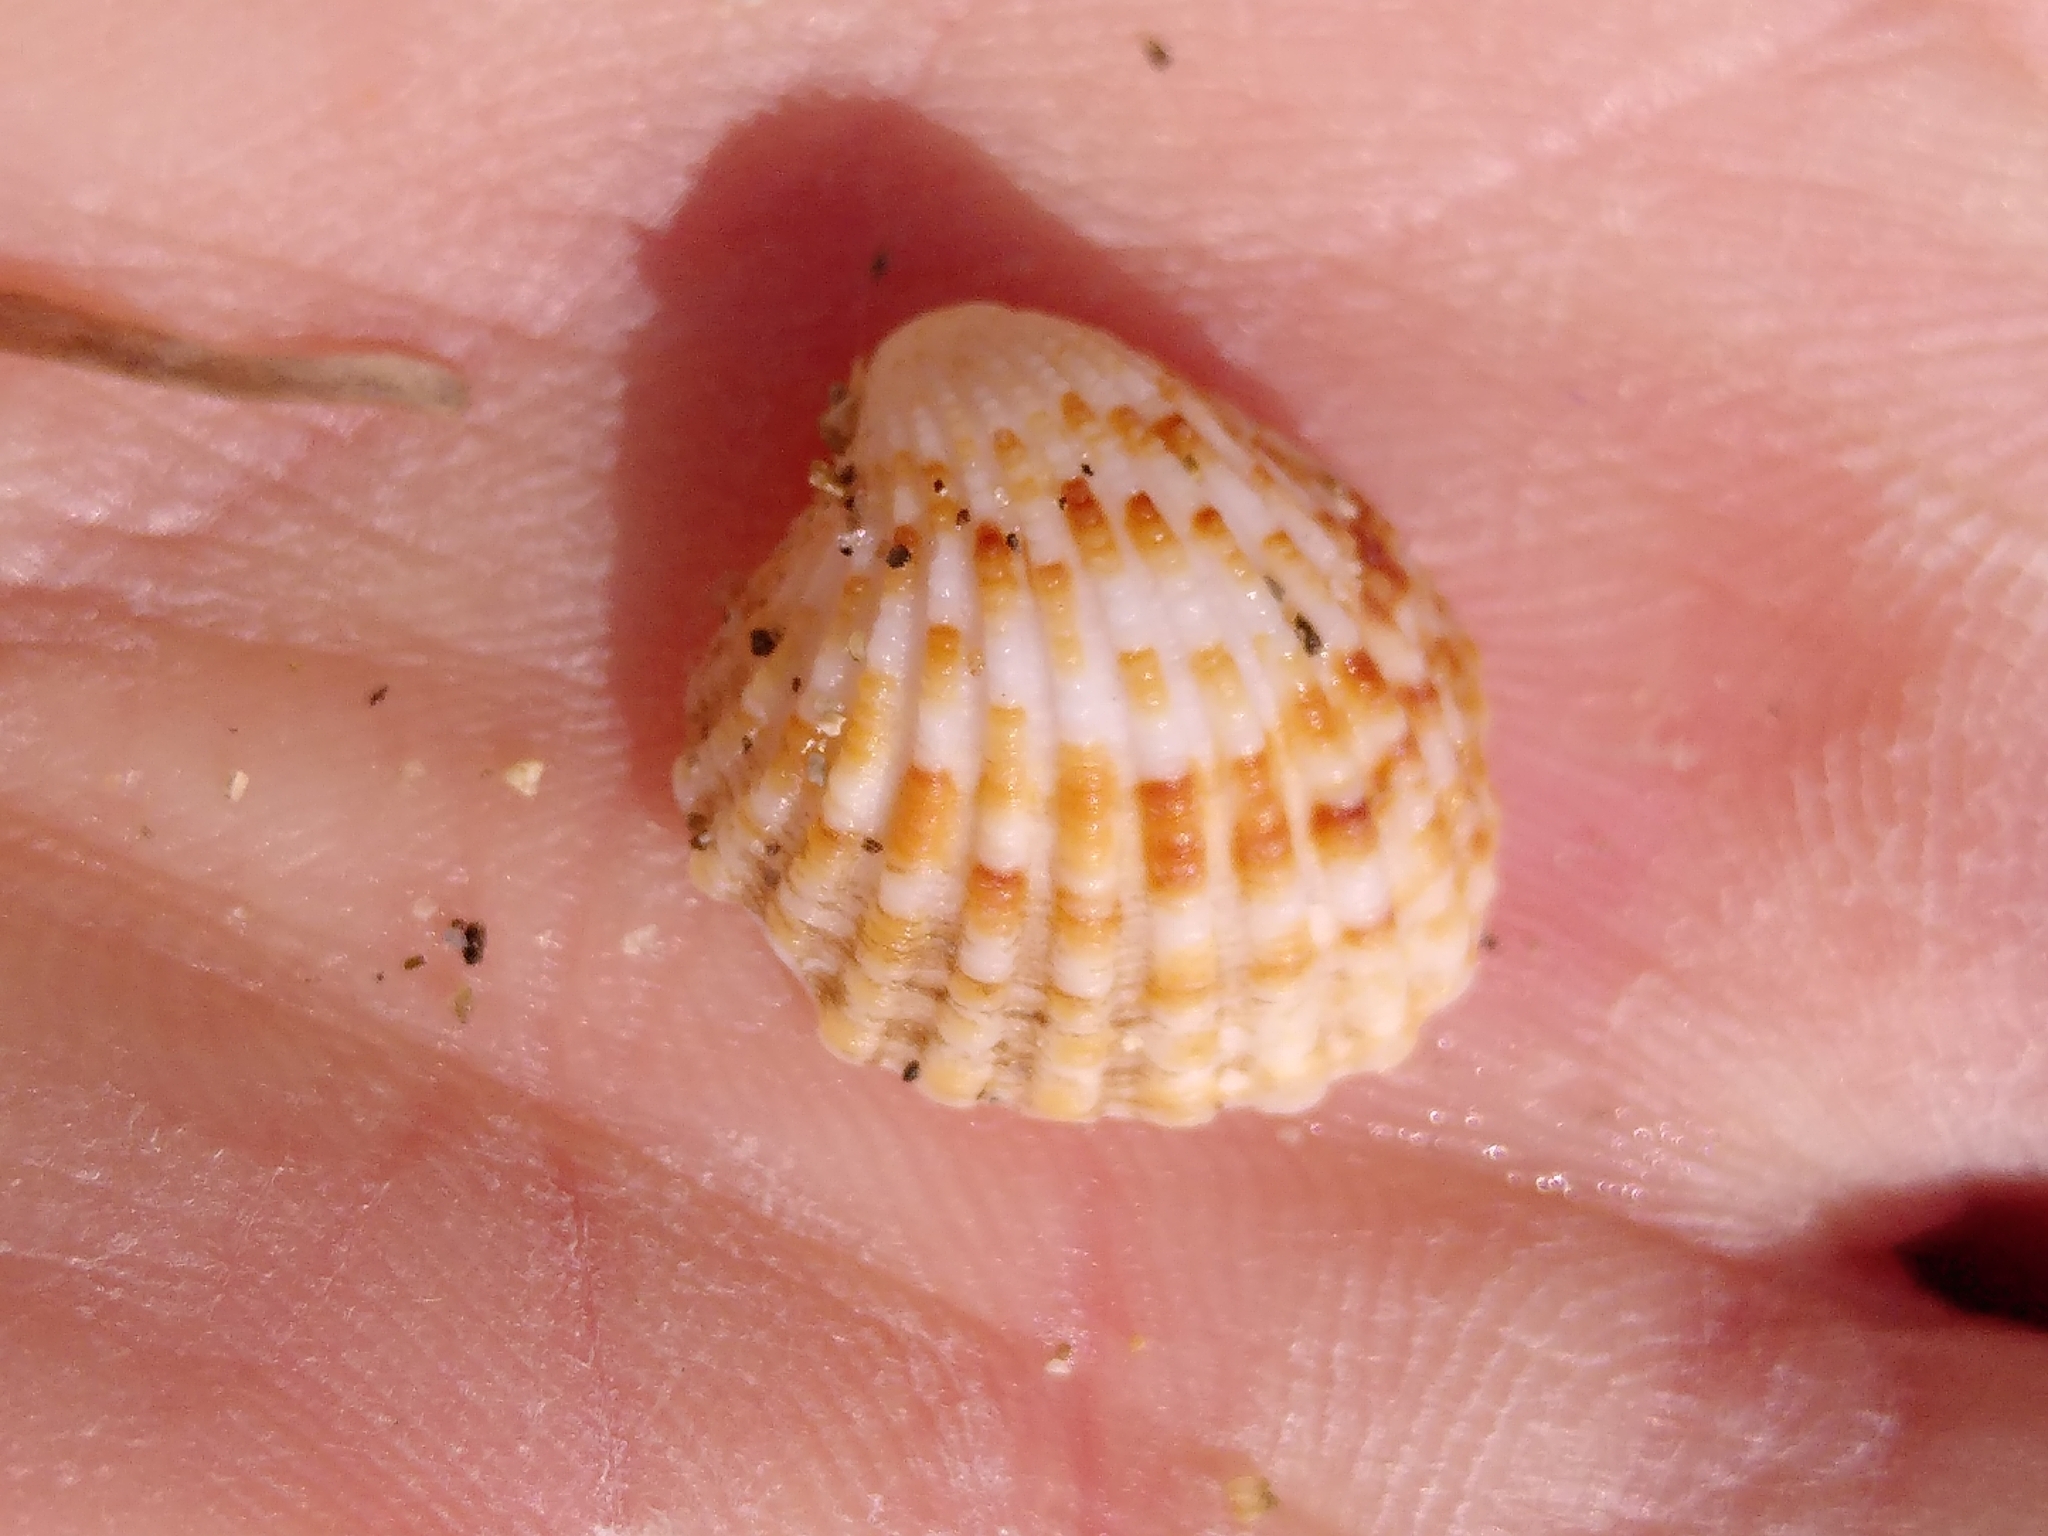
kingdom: Animalia
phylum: Mollusca
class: Bivalvia
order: Carditida
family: Carditidae
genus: Cardites
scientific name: Cardites antiquatus
